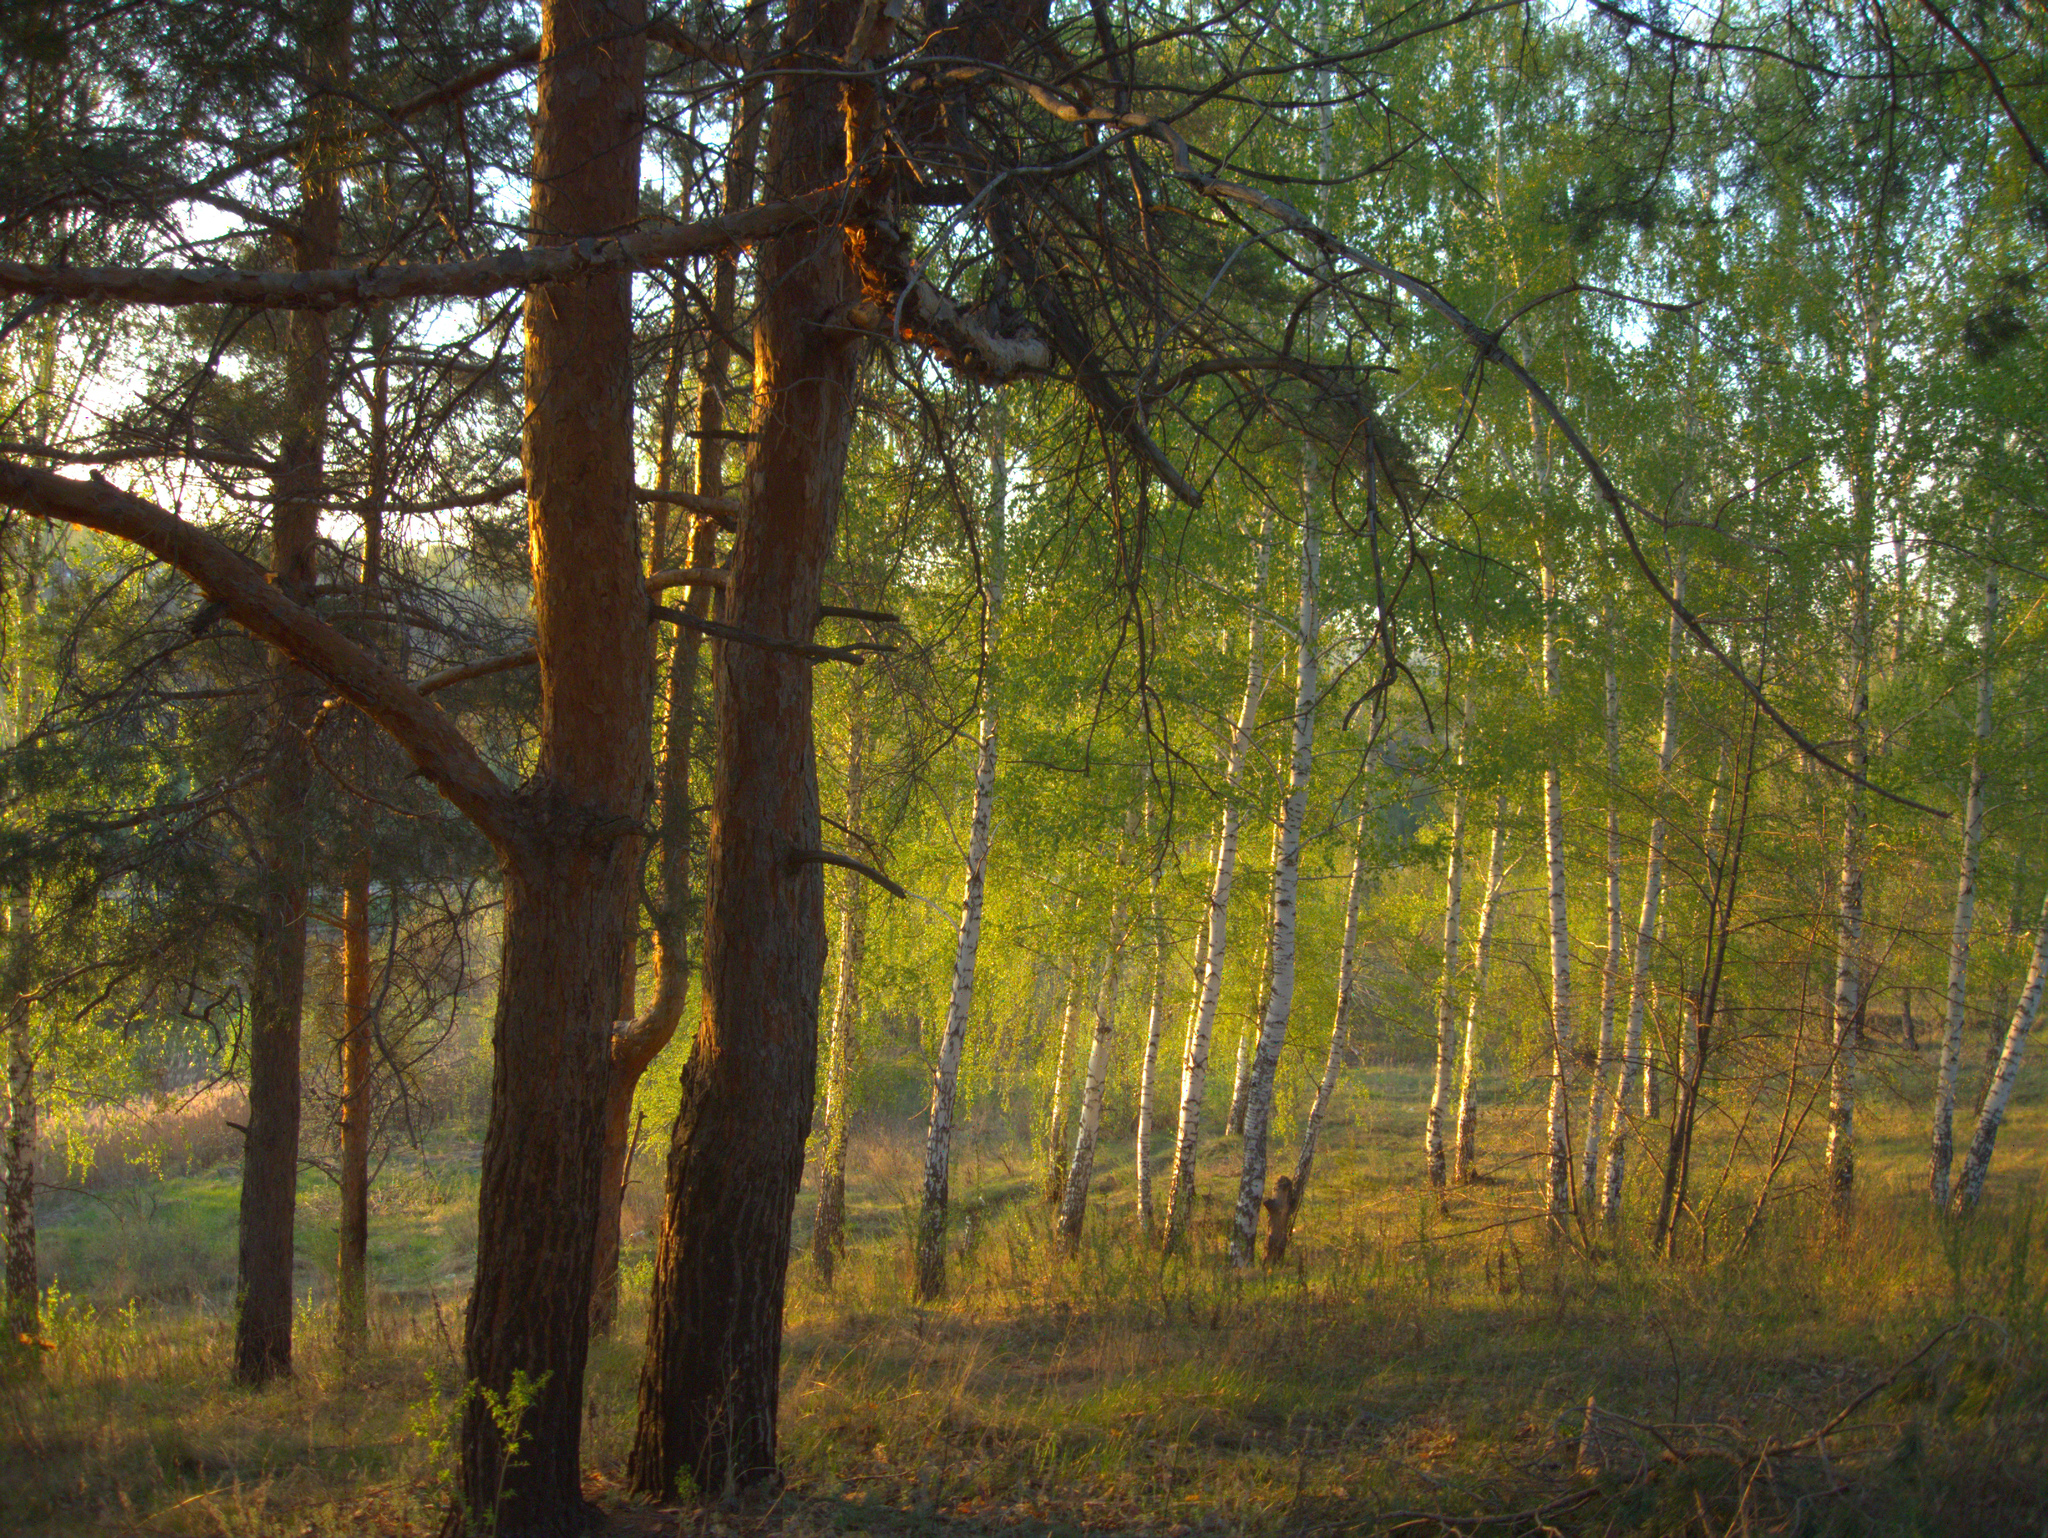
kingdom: Plantae
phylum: Tracheophyta
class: Pinopsida
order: Pinales
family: Pinaceae
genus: Pinus
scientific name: Pinus sylvestris
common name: Scots pine
